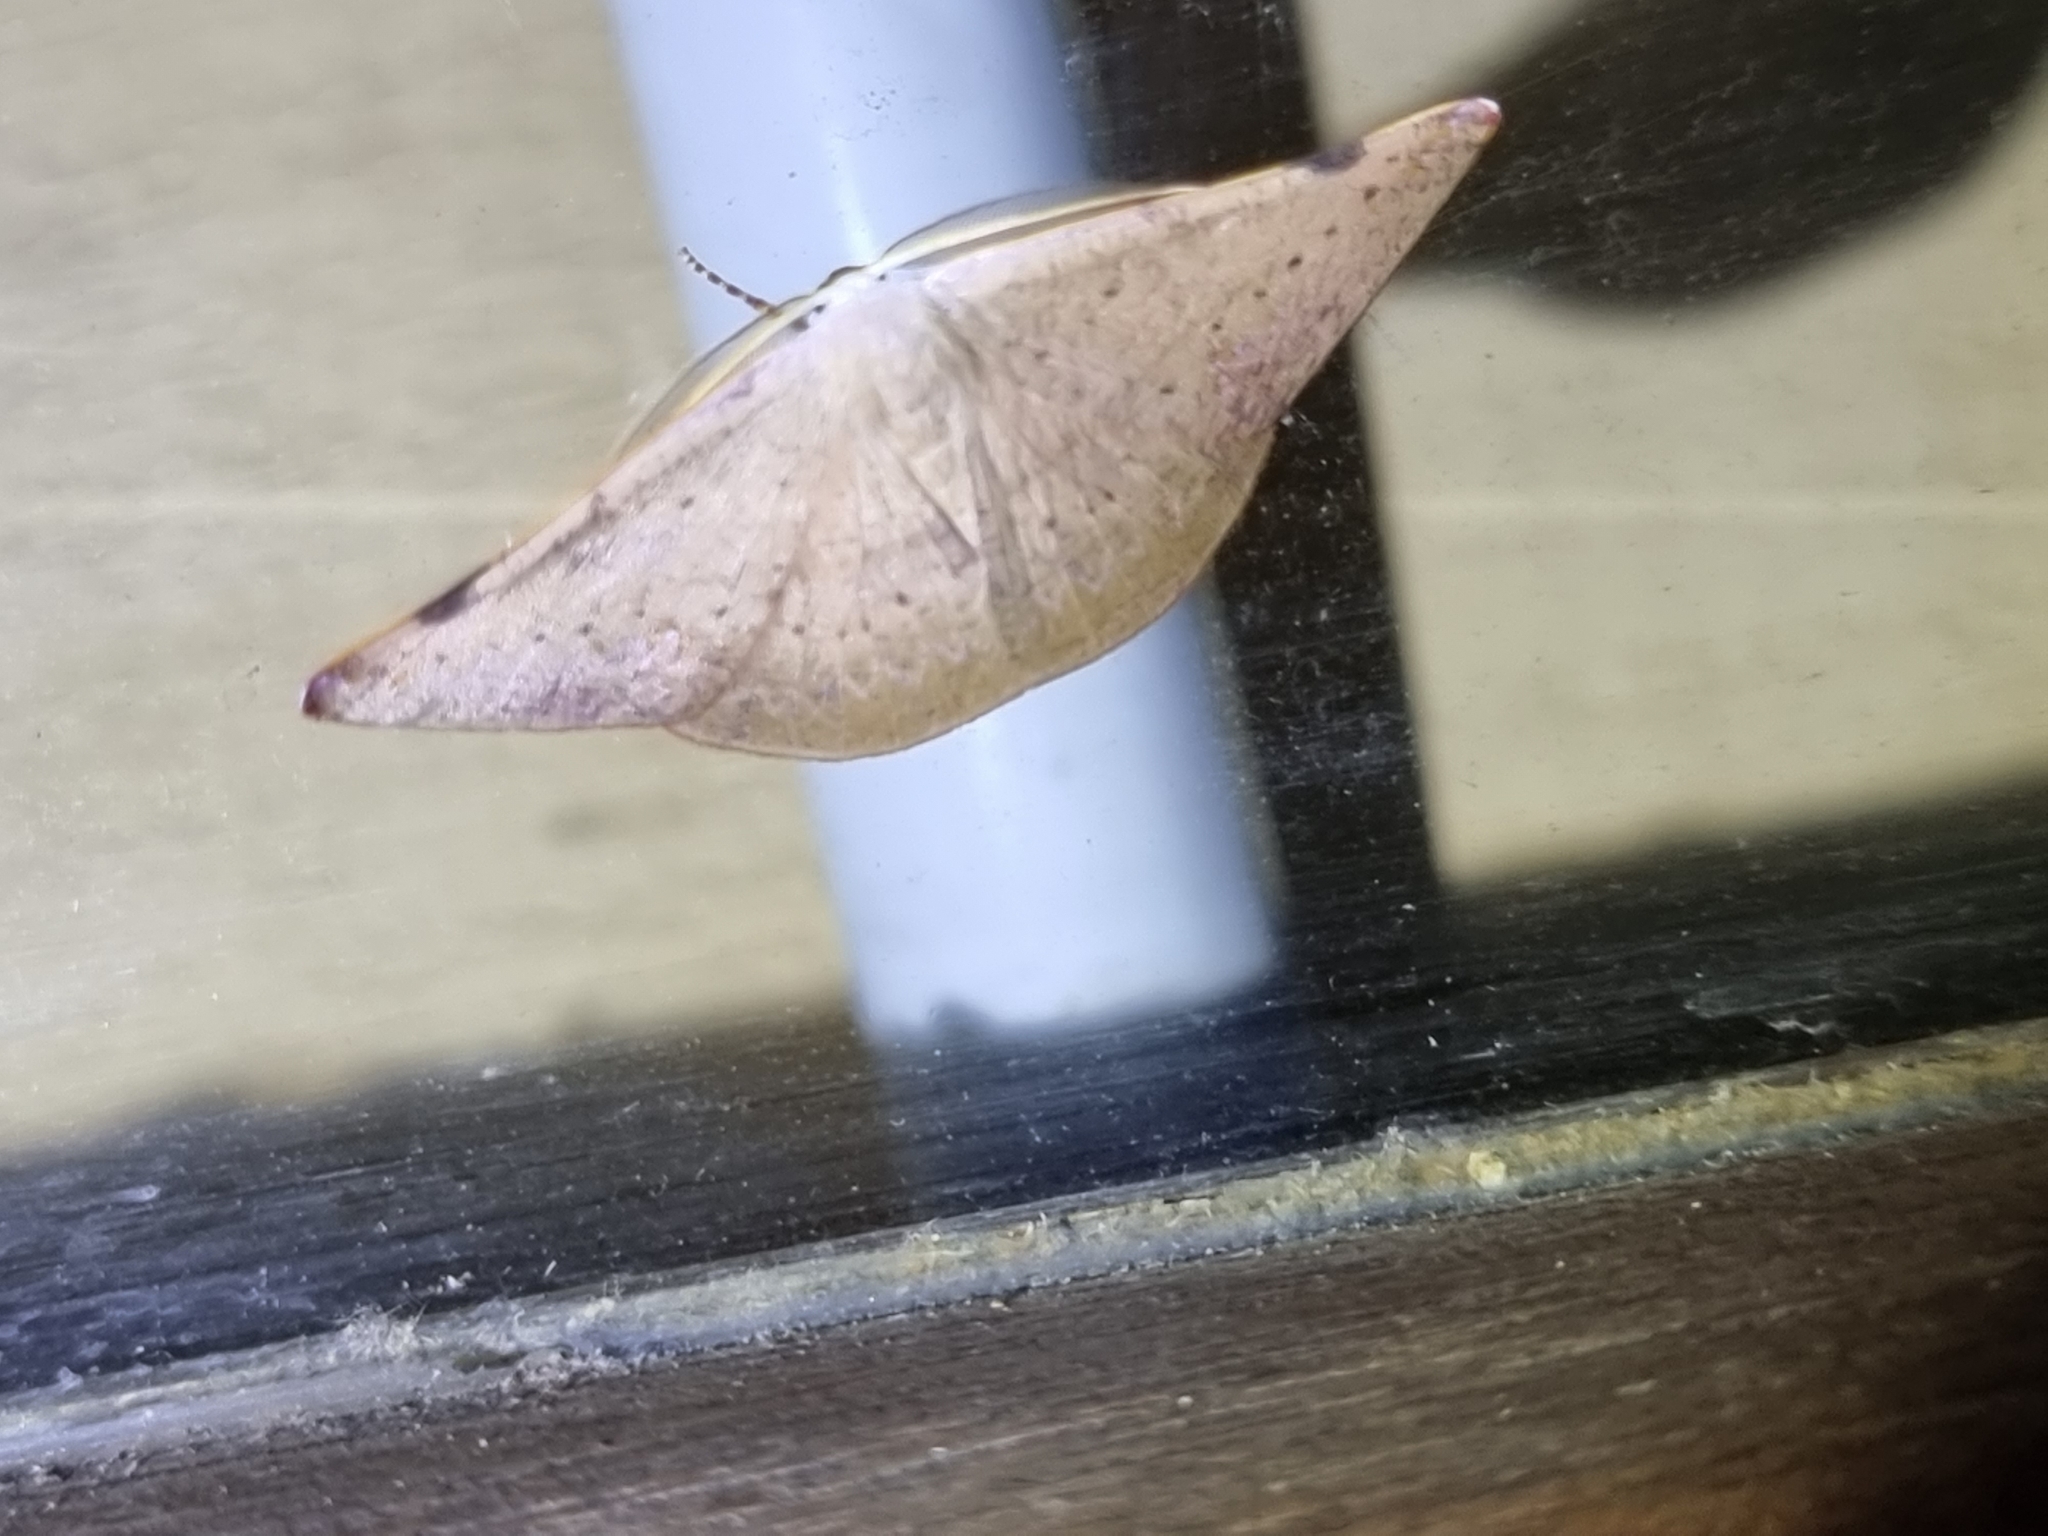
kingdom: Animalia
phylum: Arthropoda
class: Insecta
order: Lepidoptera
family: Geometridae
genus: Onycodes
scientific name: Onycodes rubra
